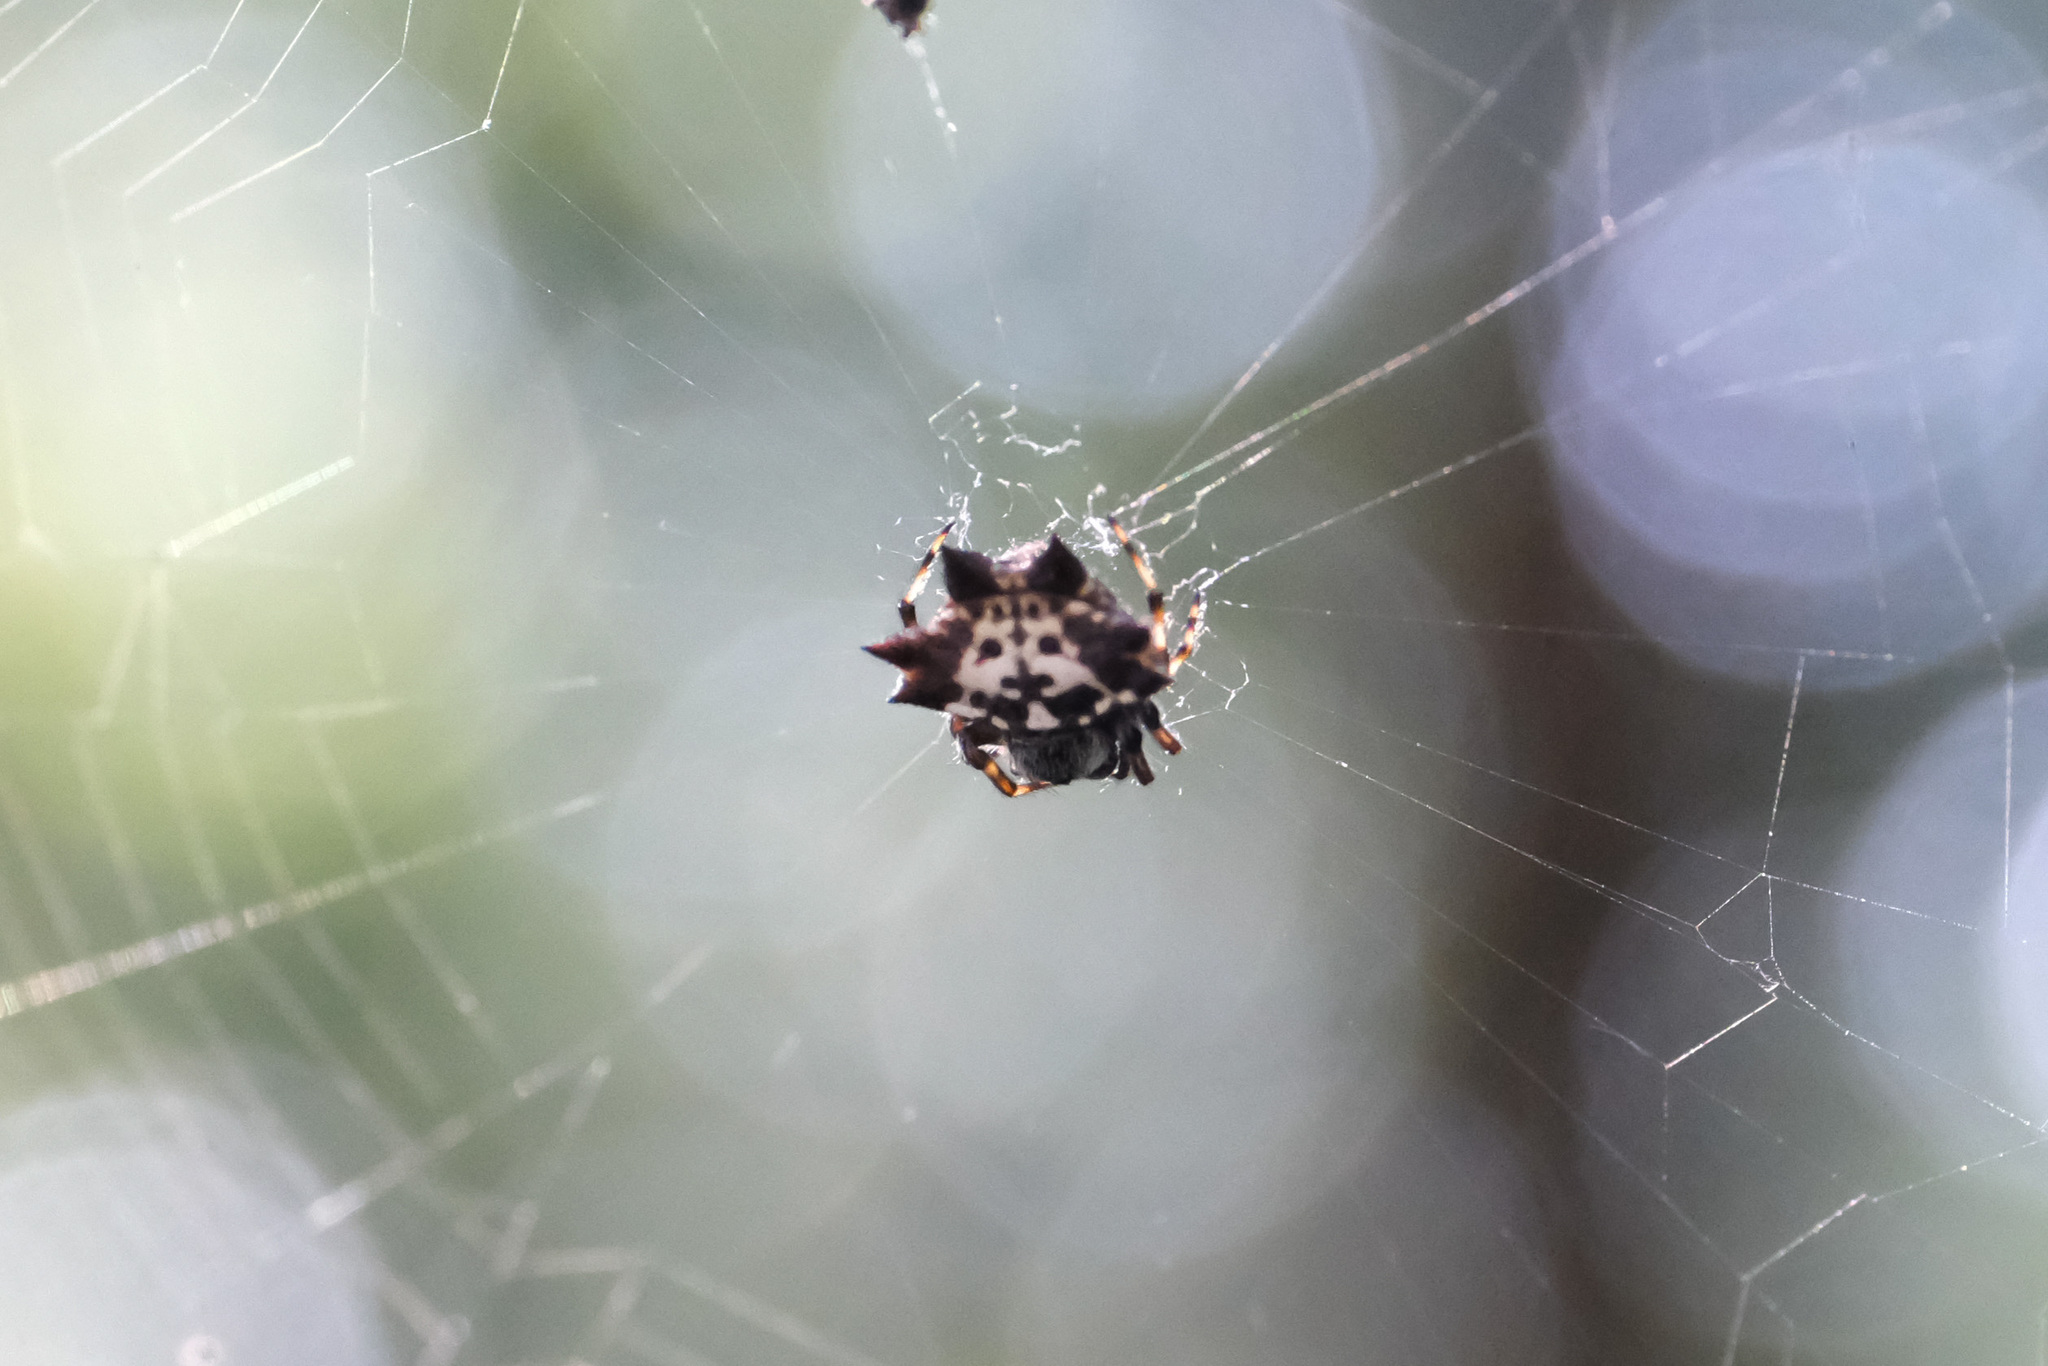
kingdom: Animalia
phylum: Arthropoda
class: Arachnida
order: Araneae
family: Araneidae
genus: Gasteracantha
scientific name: Gasteracantha kuhli
